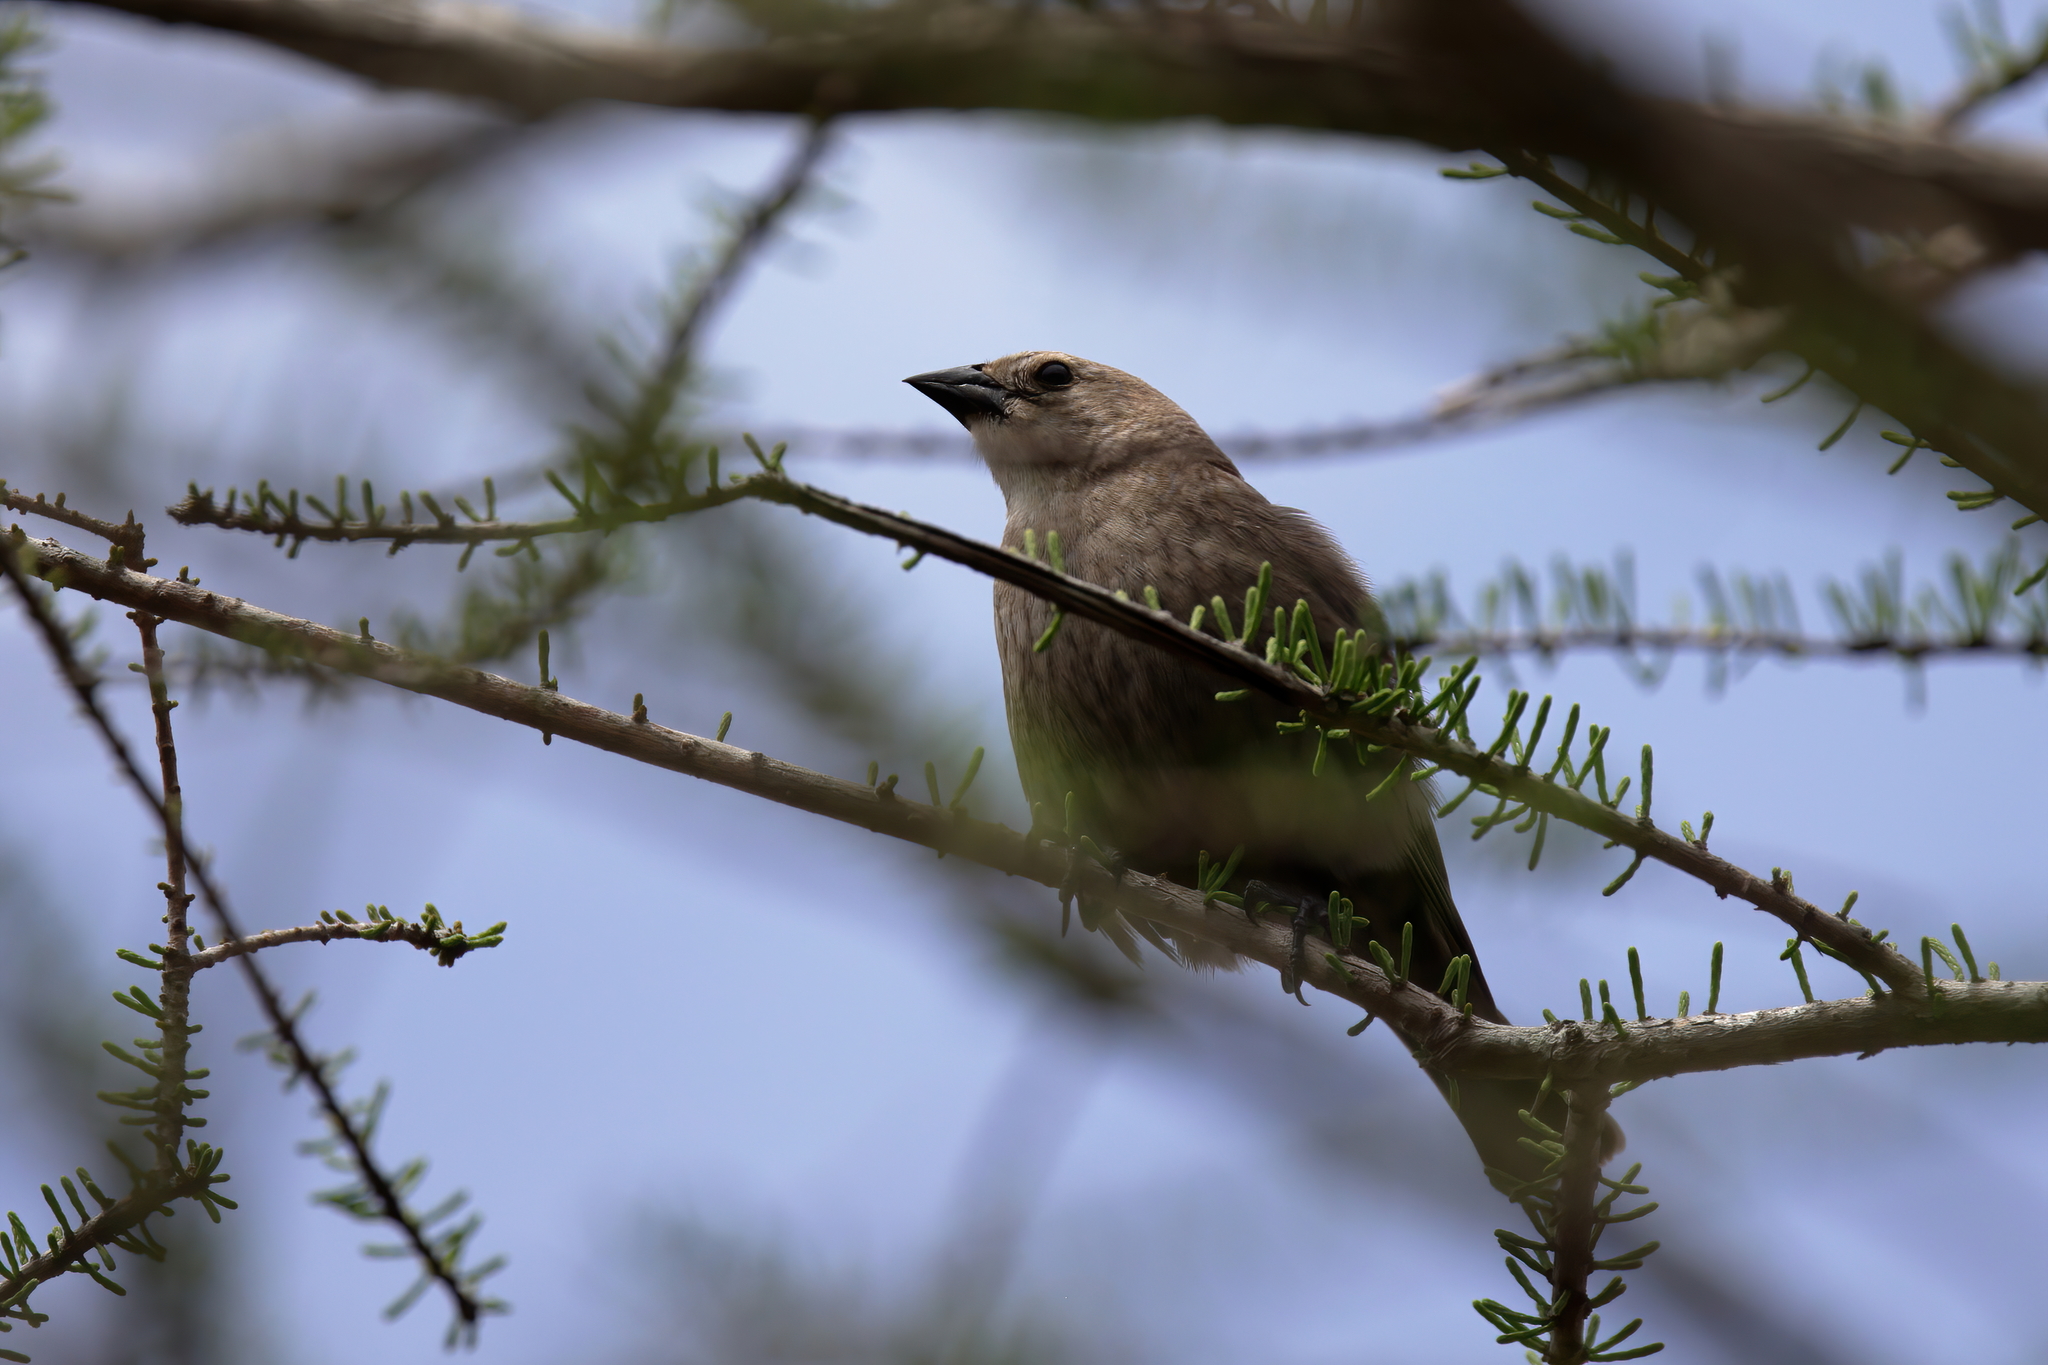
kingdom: Animalia
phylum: Chordata
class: Aves
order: Passeriformes
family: Icteridae
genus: Molothrus
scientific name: Molothrus ater
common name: Brown-headed cowbird
